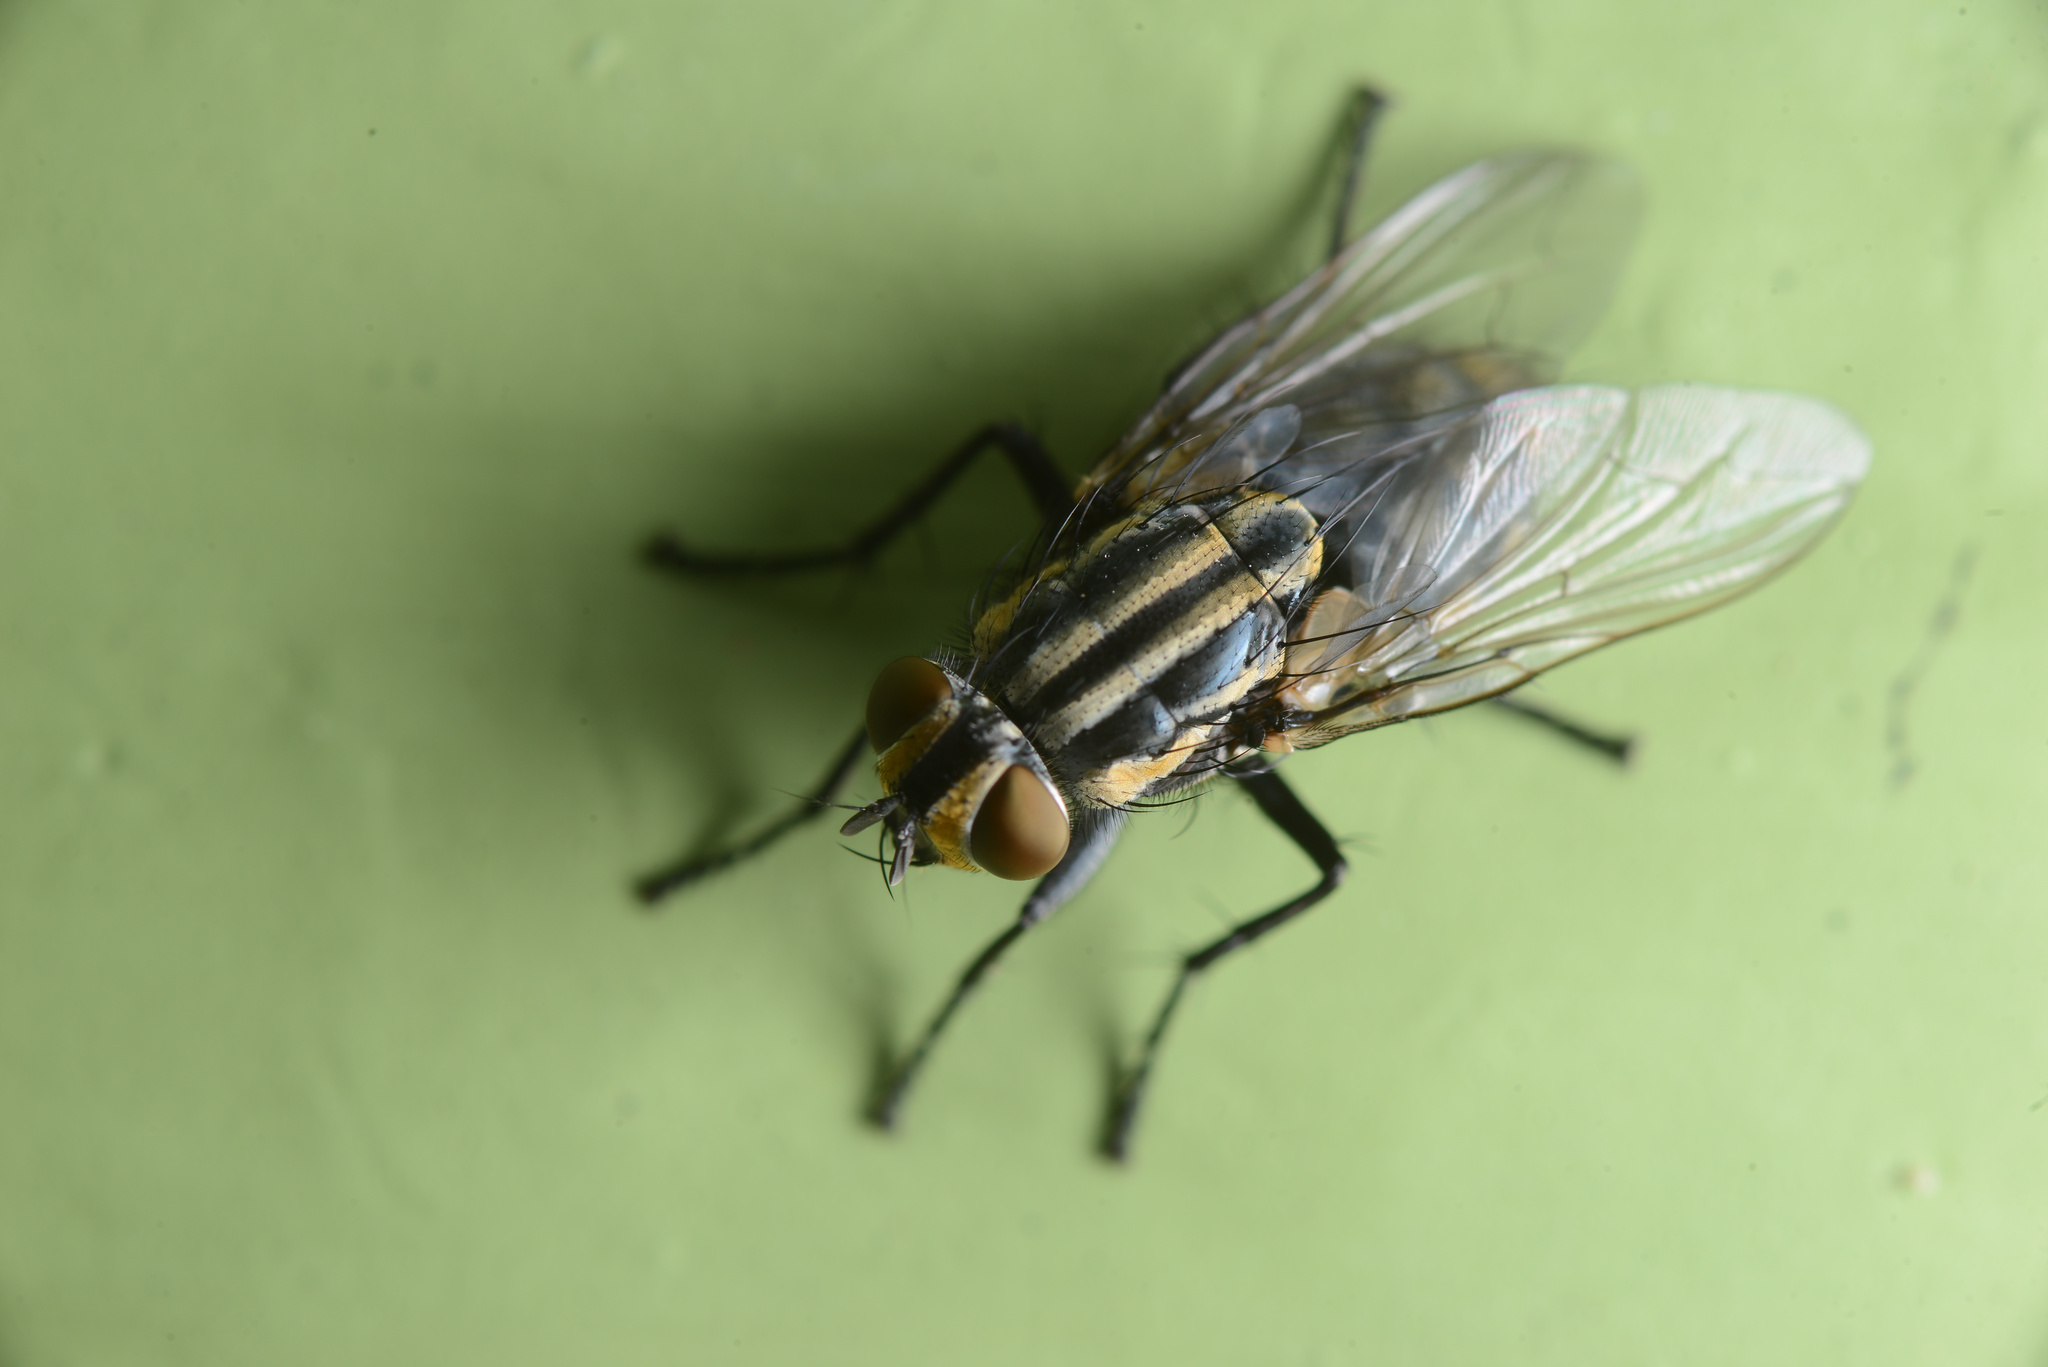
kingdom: Animalia
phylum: Arthropoda
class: Insecta
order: Diptera
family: Sarcophagidae
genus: Oxysarcodexia
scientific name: Oxysarcodexia varia
